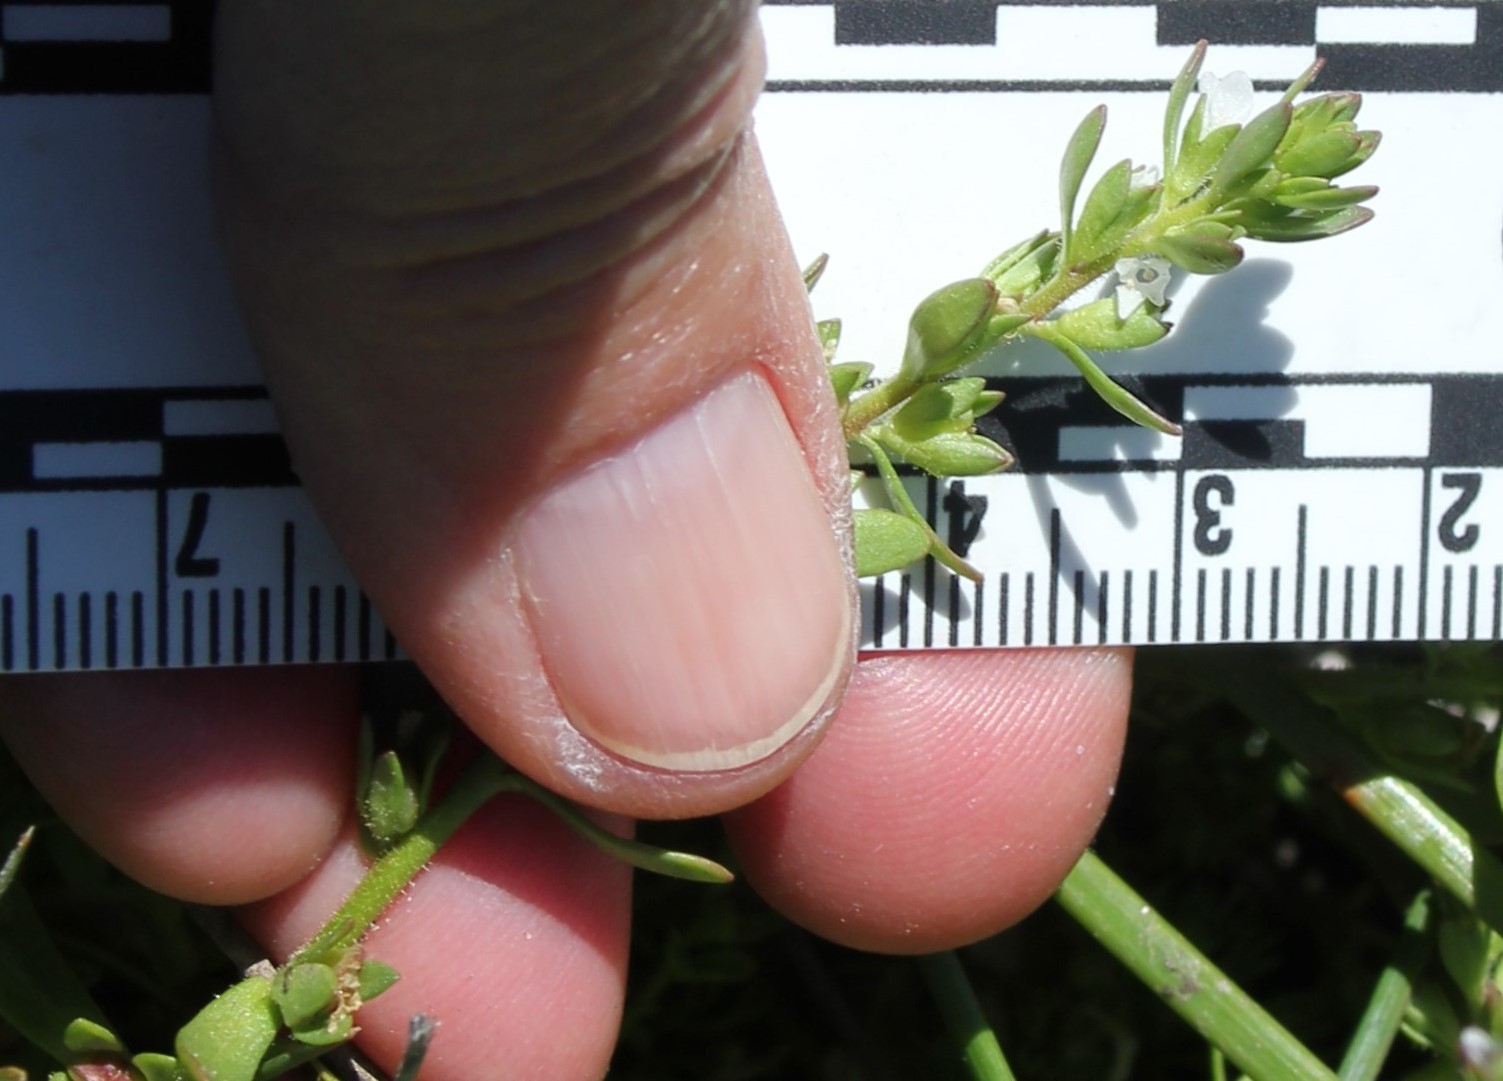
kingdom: Plantae
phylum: Tracheophyta
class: Magnoliopsida
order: Lamiales
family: Plantaginaceae
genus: Veronica
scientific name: Veronica peregrina
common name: Neckweed
